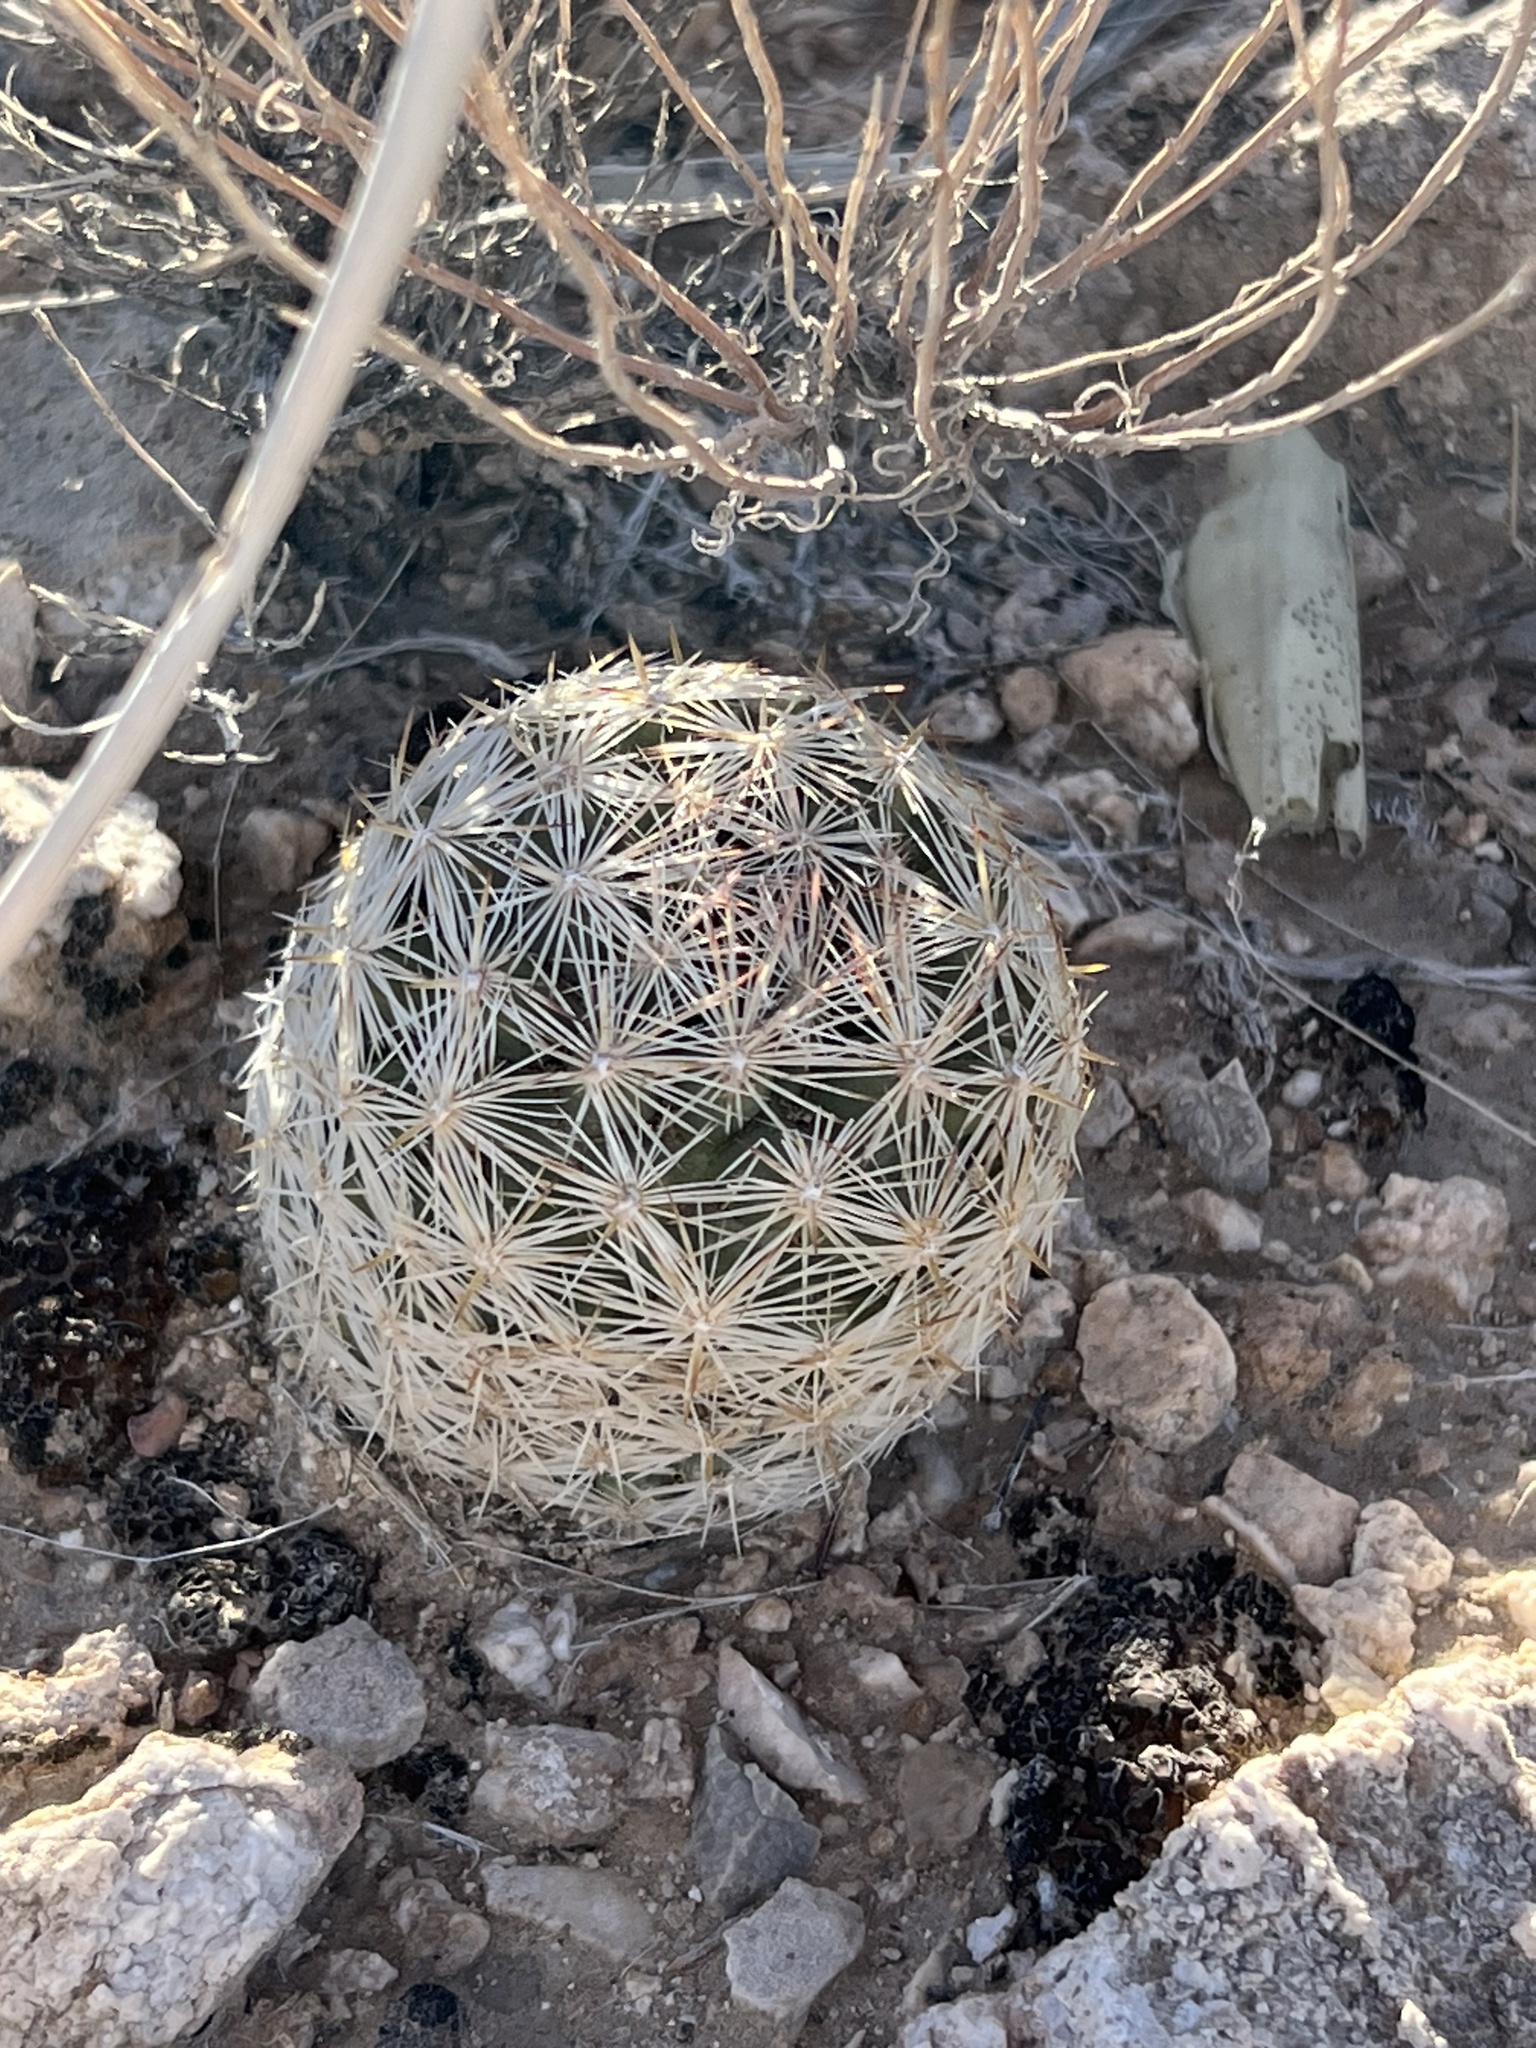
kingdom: Plantae
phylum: Tracheophyta
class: Magnoliopsida
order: Caryophyllales
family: Cactaceae
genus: Pelecyphora
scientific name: Pelecyphora dasyacantha
